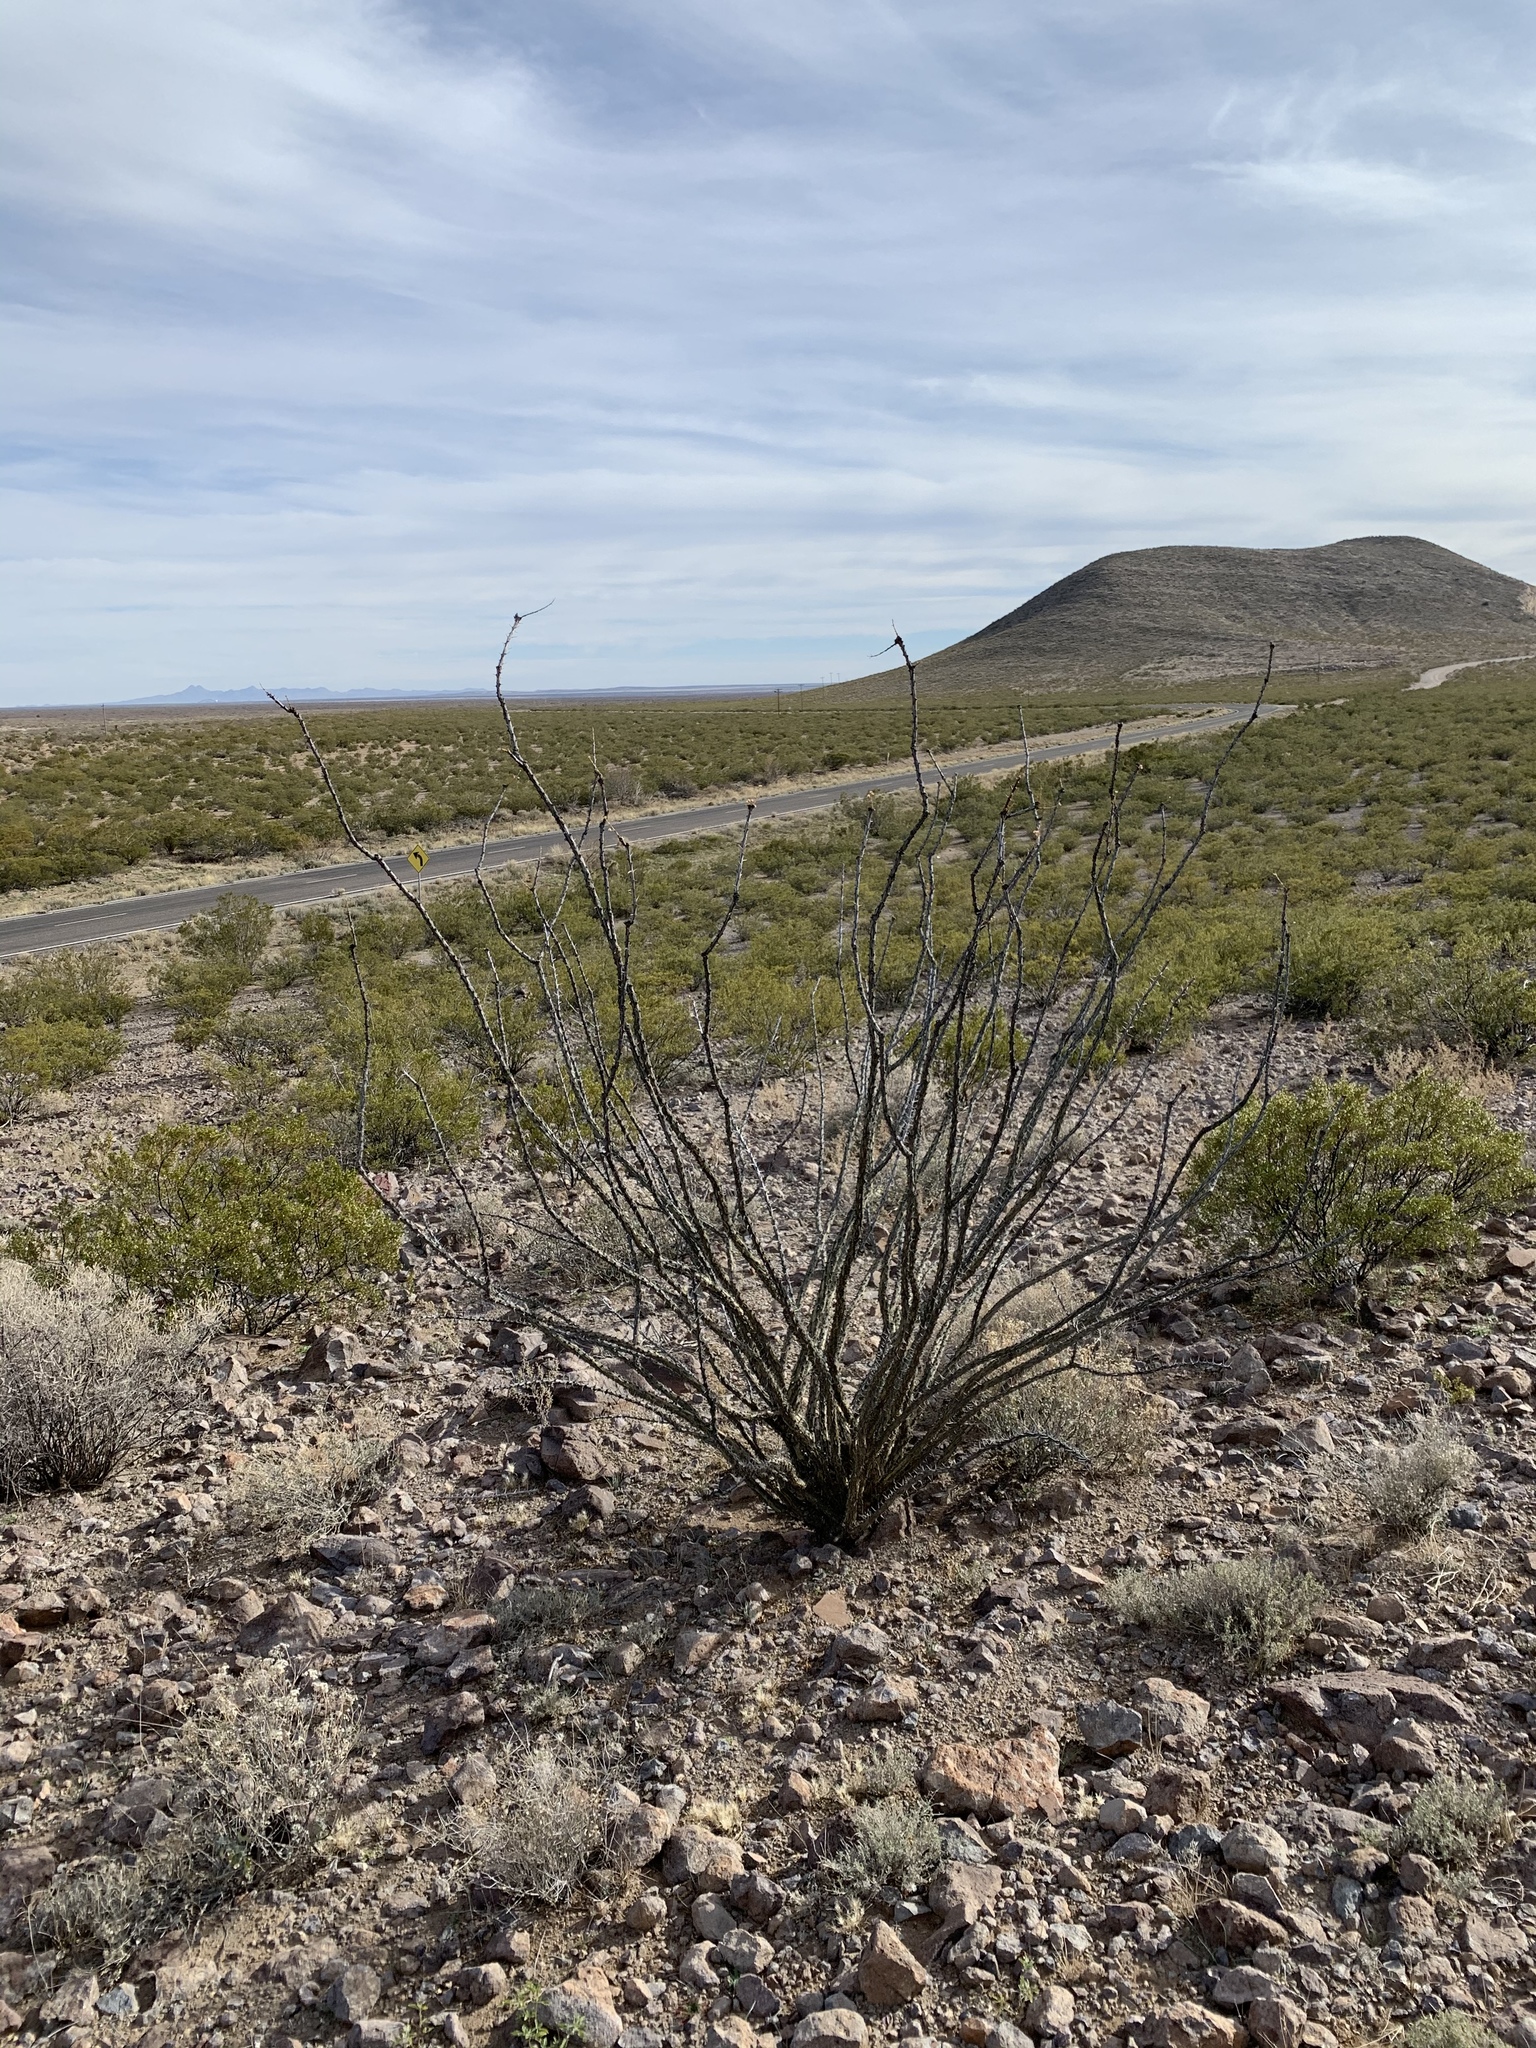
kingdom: Plantae
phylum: Tracheophyta
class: Magnoliopsida
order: Ericales
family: Fouquieriaceae
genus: Fouquieria
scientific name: Fouquieria splendens
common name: Vine-cactus
